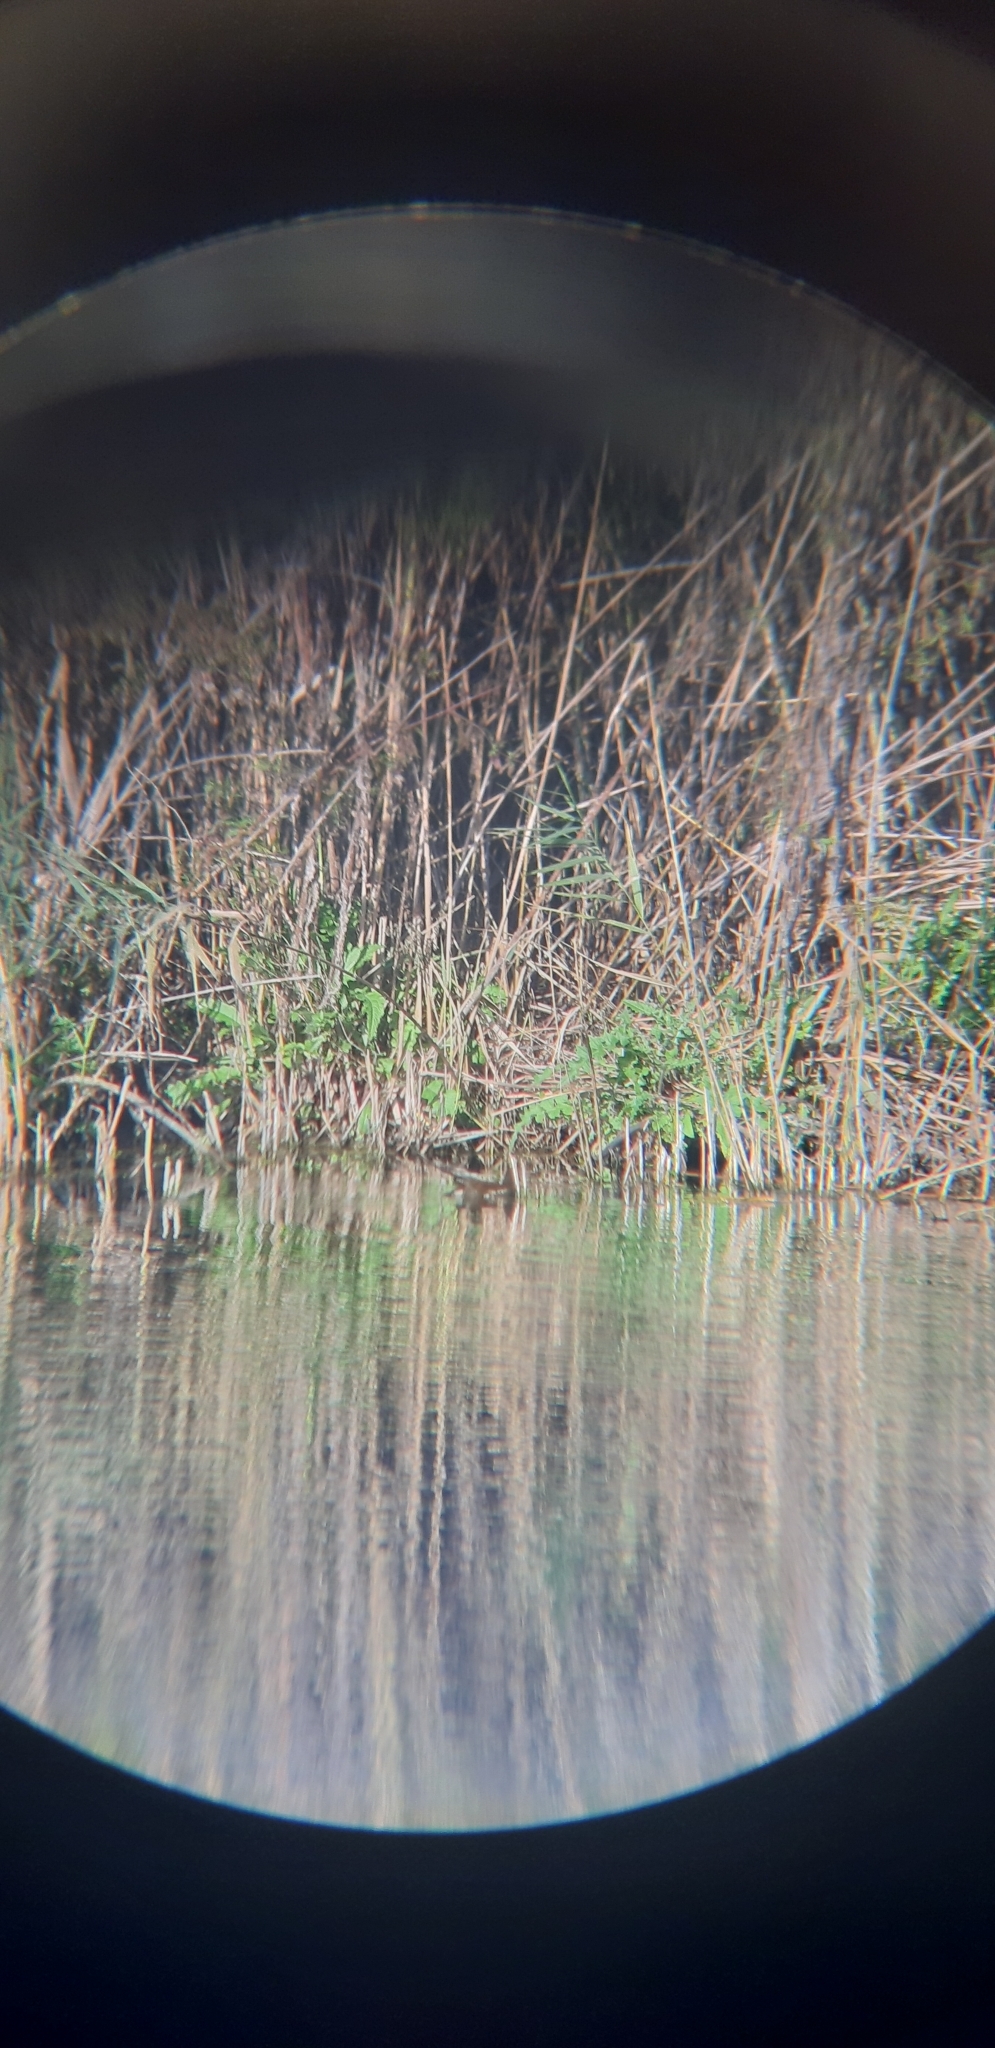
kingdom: Animalia
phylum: Chordata
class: Aves
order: Gruiformes
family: Rallidae
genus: Gallinula
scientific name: Gallinula chloropus
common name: Common moorhen
